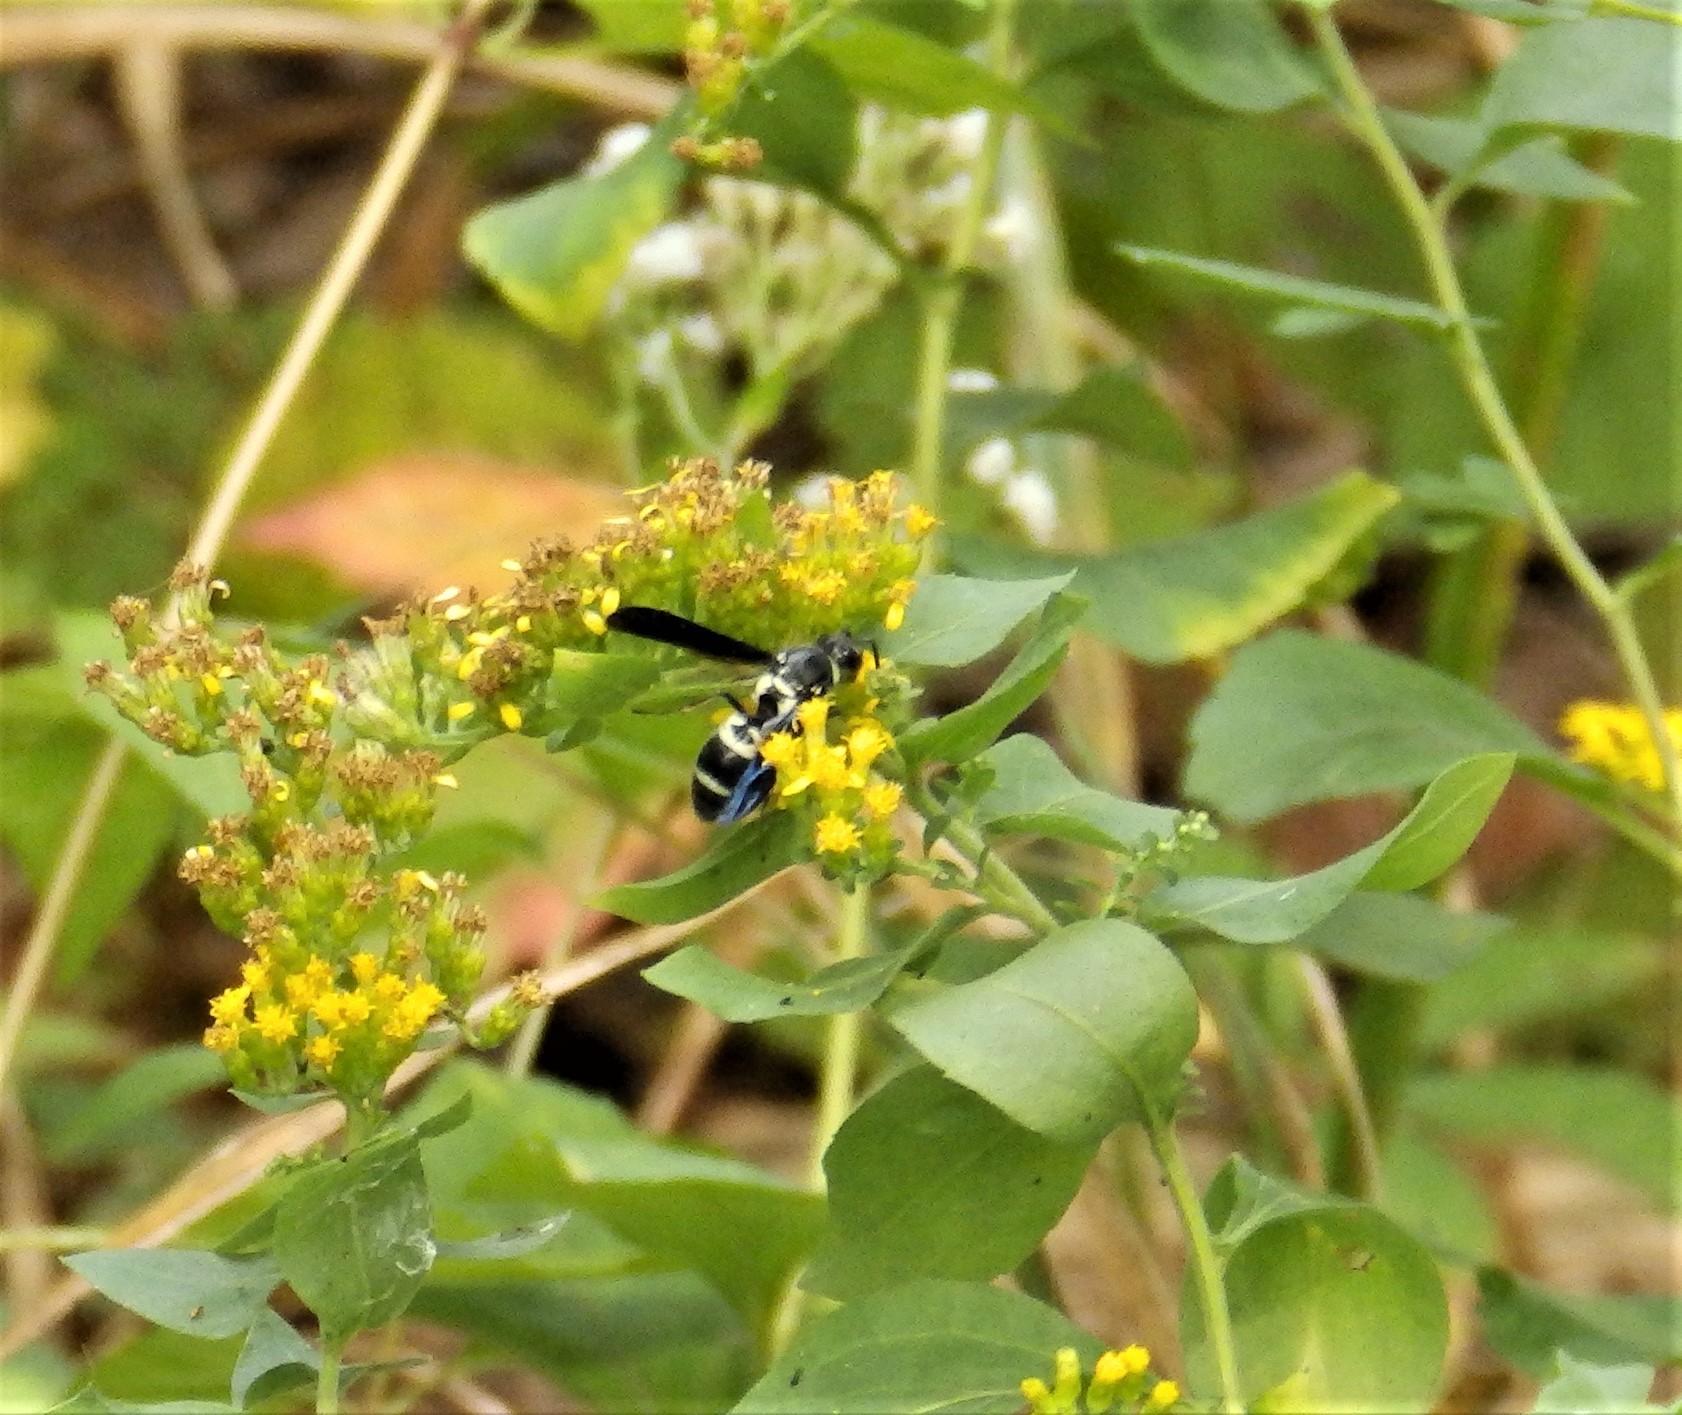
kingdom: Animalia
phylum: Arthropoda
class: Insecta
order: Hymenoptera
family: Eumenidae
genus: Pseudodynerus
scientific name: Pseudodynerus quadrisectus
